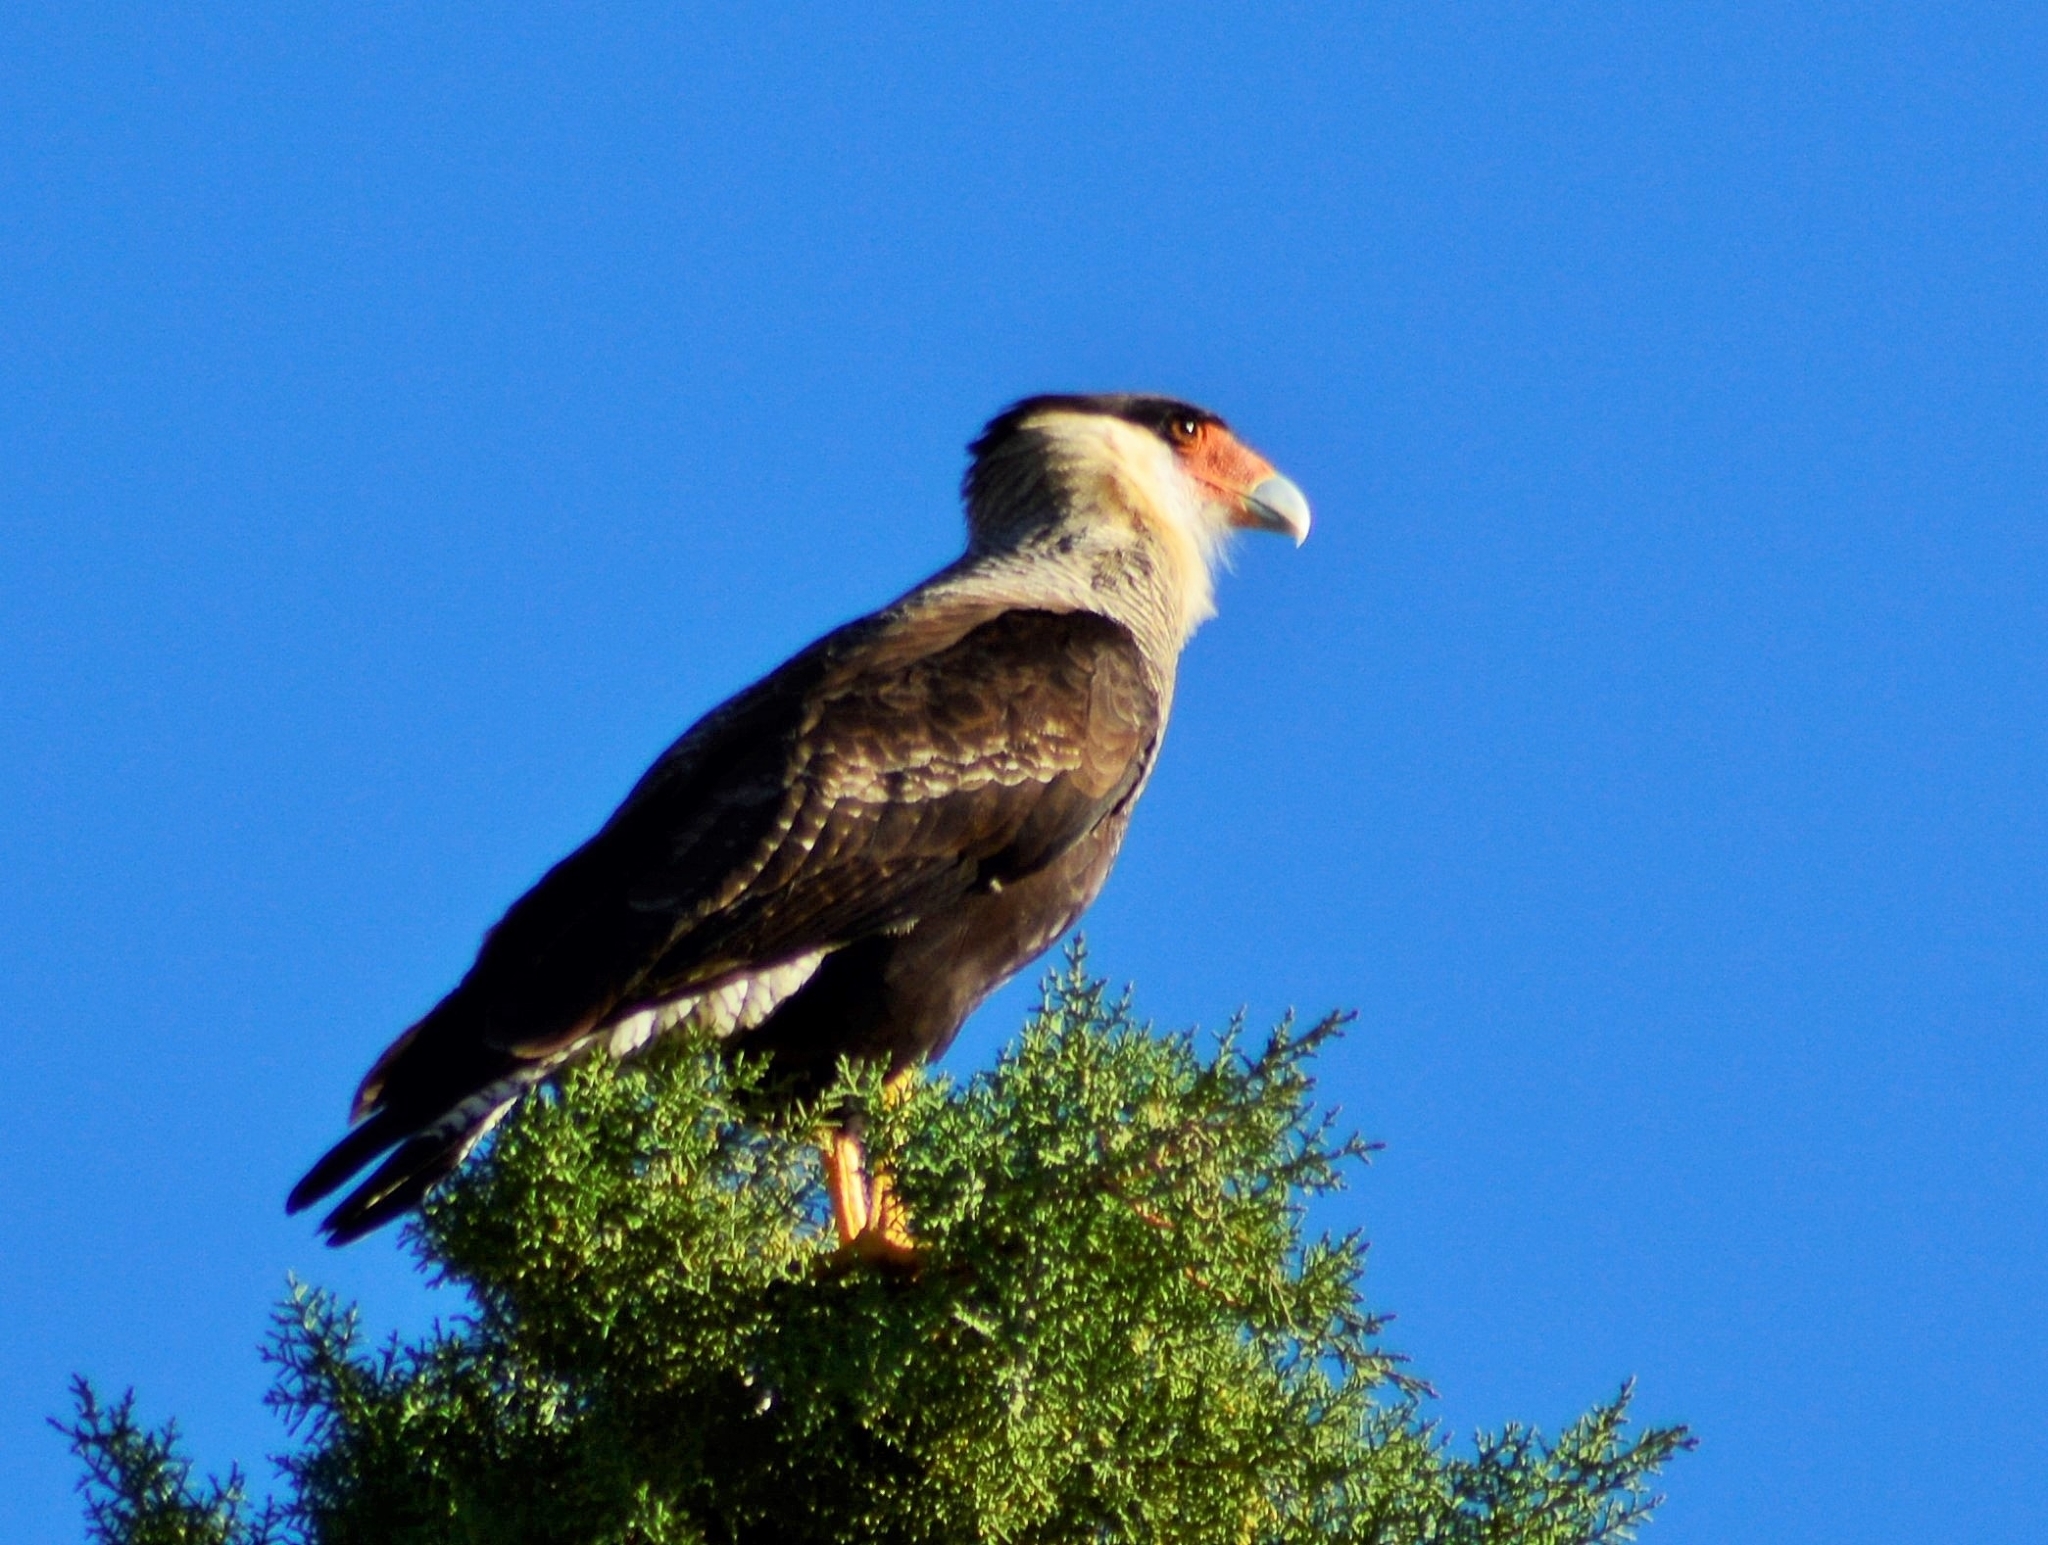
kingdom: Animalia
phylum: Chordata
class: Aves
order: Falconiformes
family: Falconidae
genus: Caracara
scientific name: Caracara plancus
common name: Southern caracara
